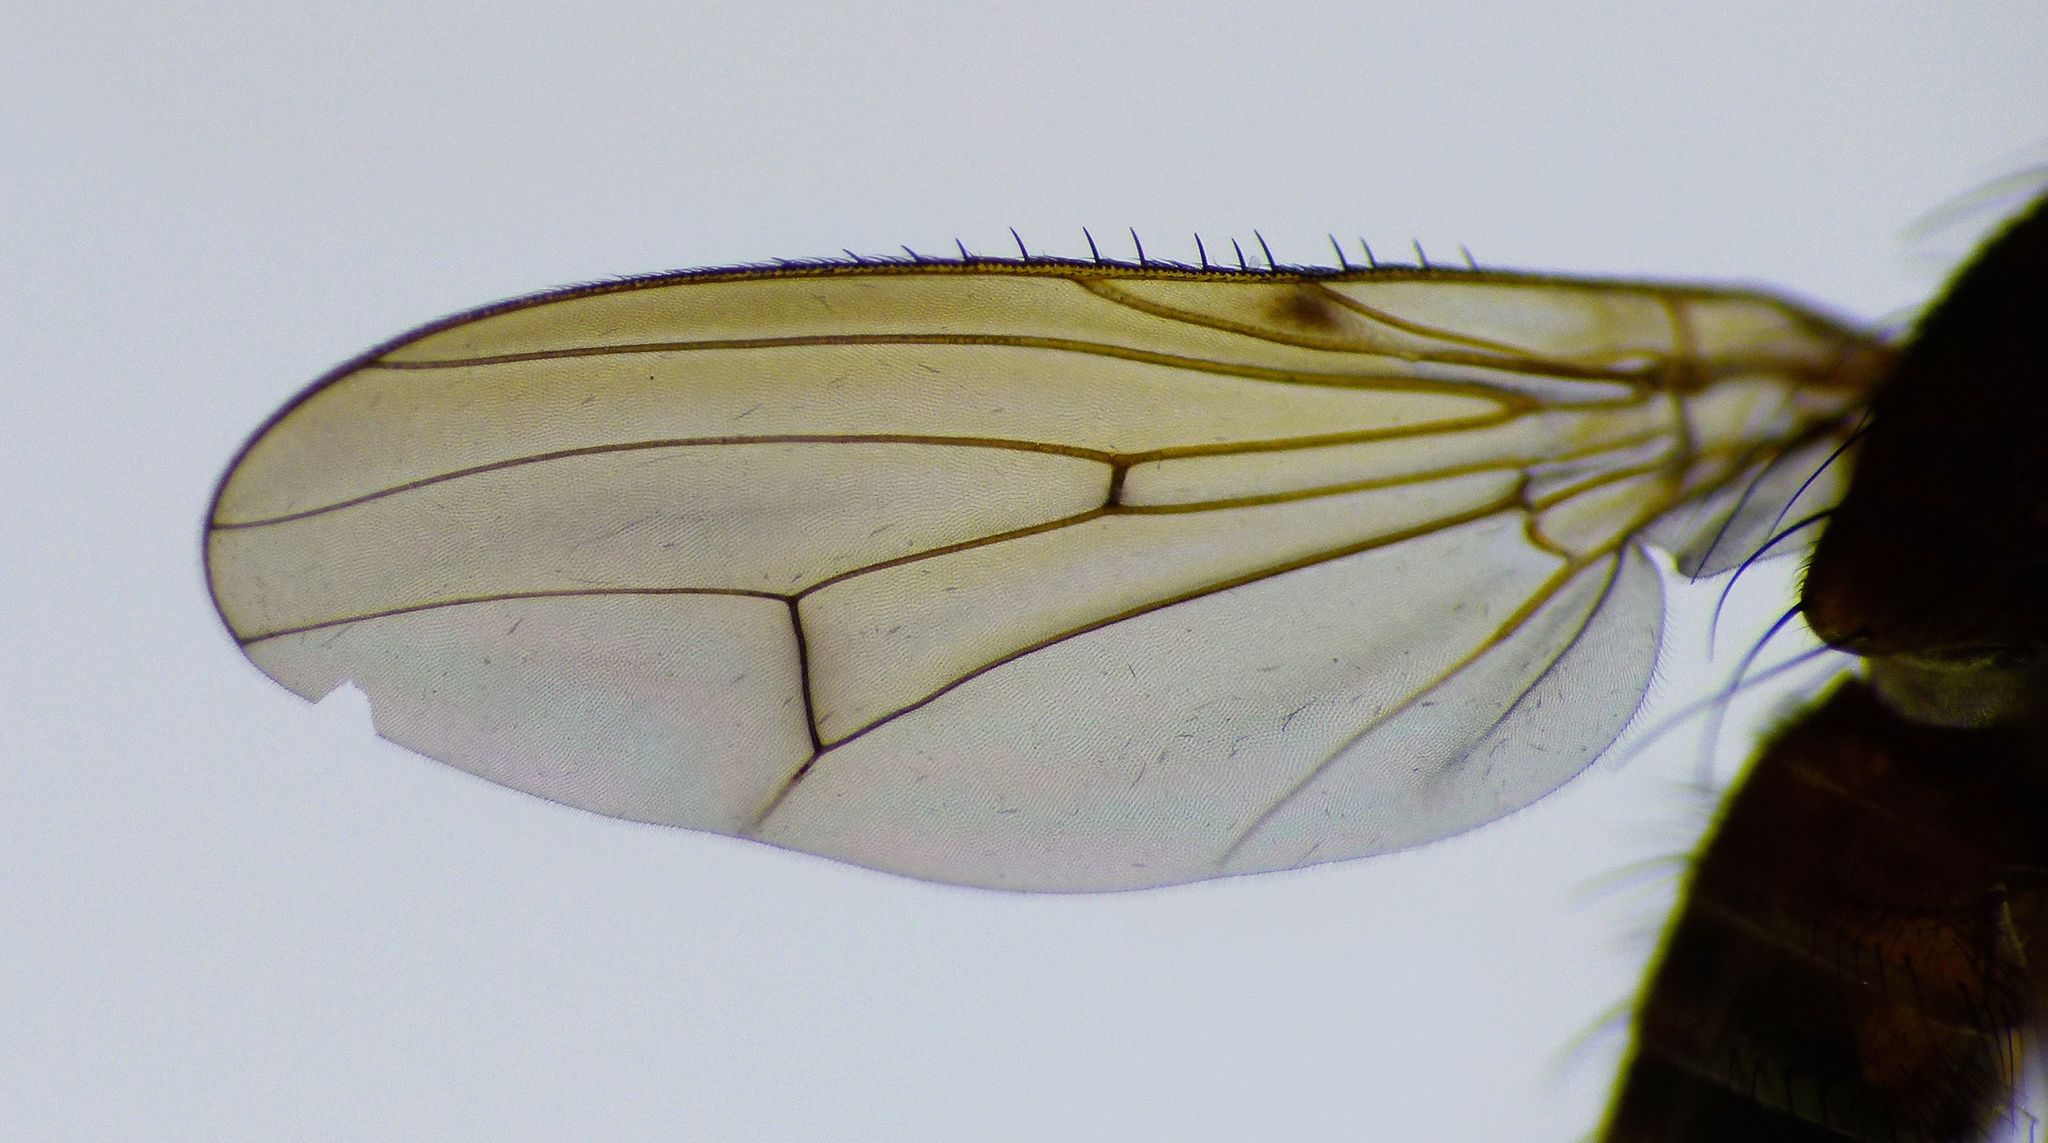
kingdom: Animalia
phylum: Arthropoda
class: Insecta
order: Diptera
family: Helosciomyzidae
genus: Napaeosciomyza
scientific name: Napaeosciomyza spinicosta
